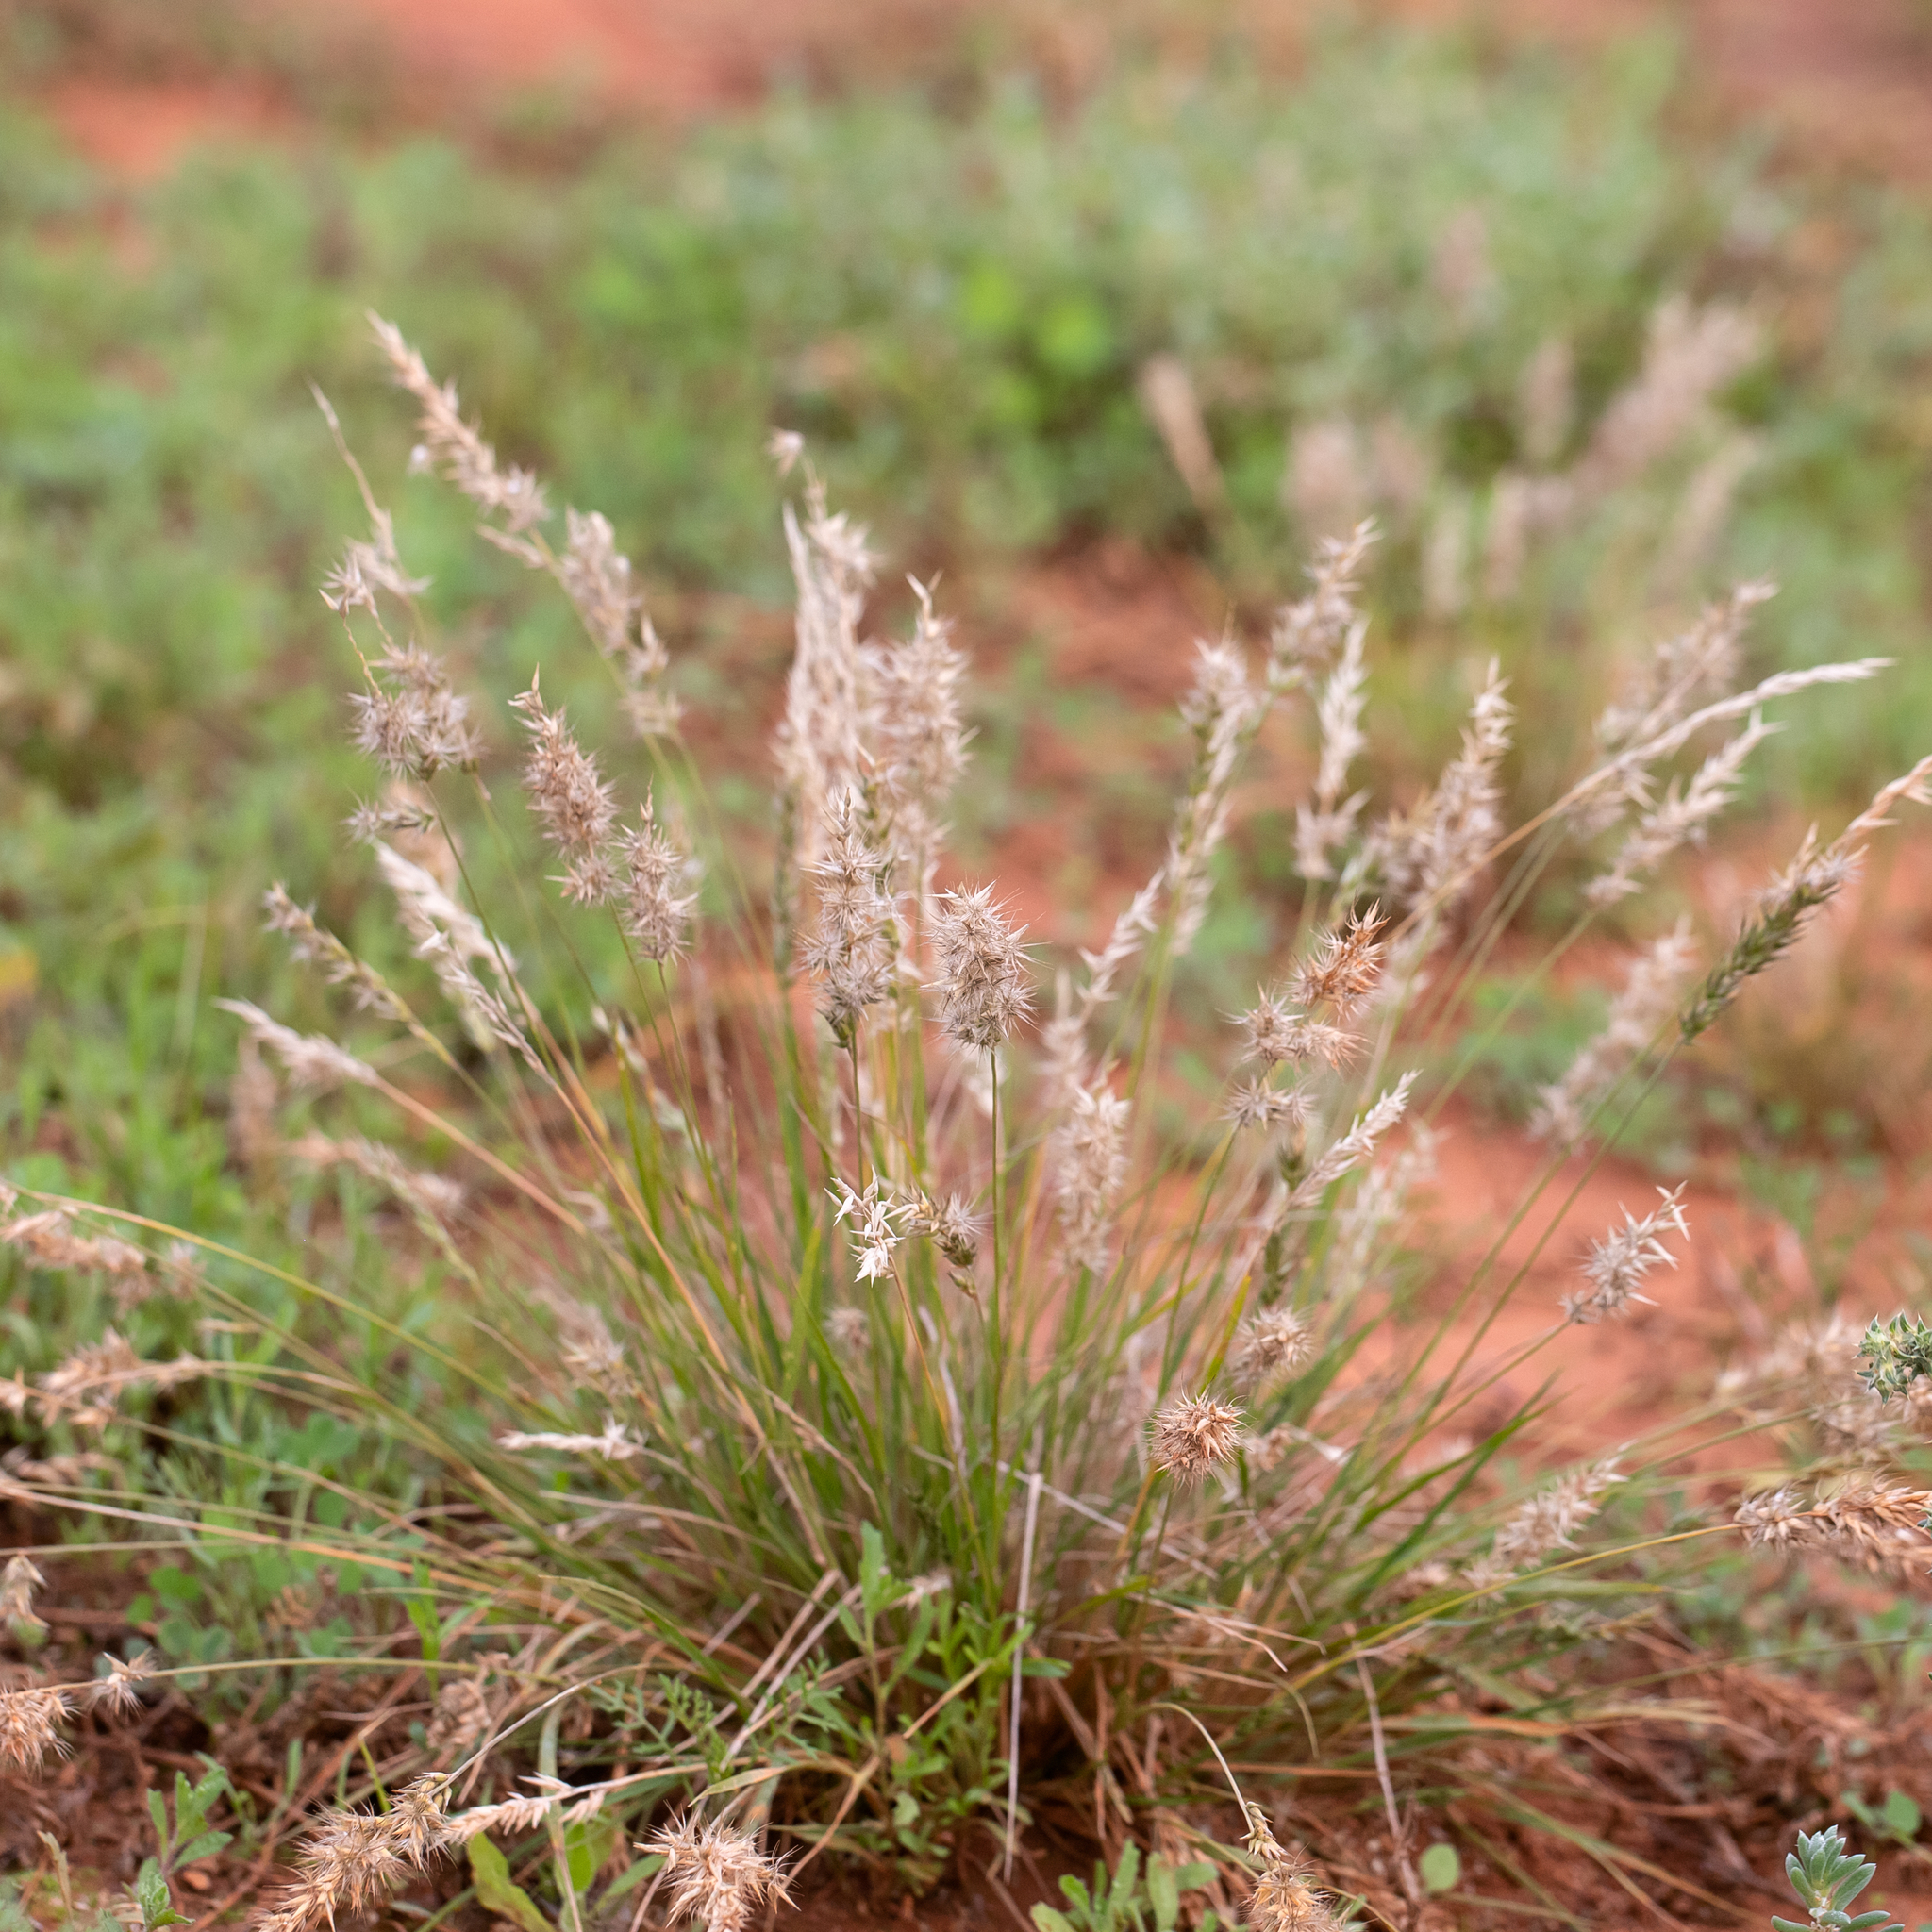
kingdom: Plantae
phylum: Tracheophyta
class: Liliopsida
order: Poales
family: Poaceae
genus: Enneapogon
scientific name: Enneapogon avenaceus
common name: Hairy oat grass
